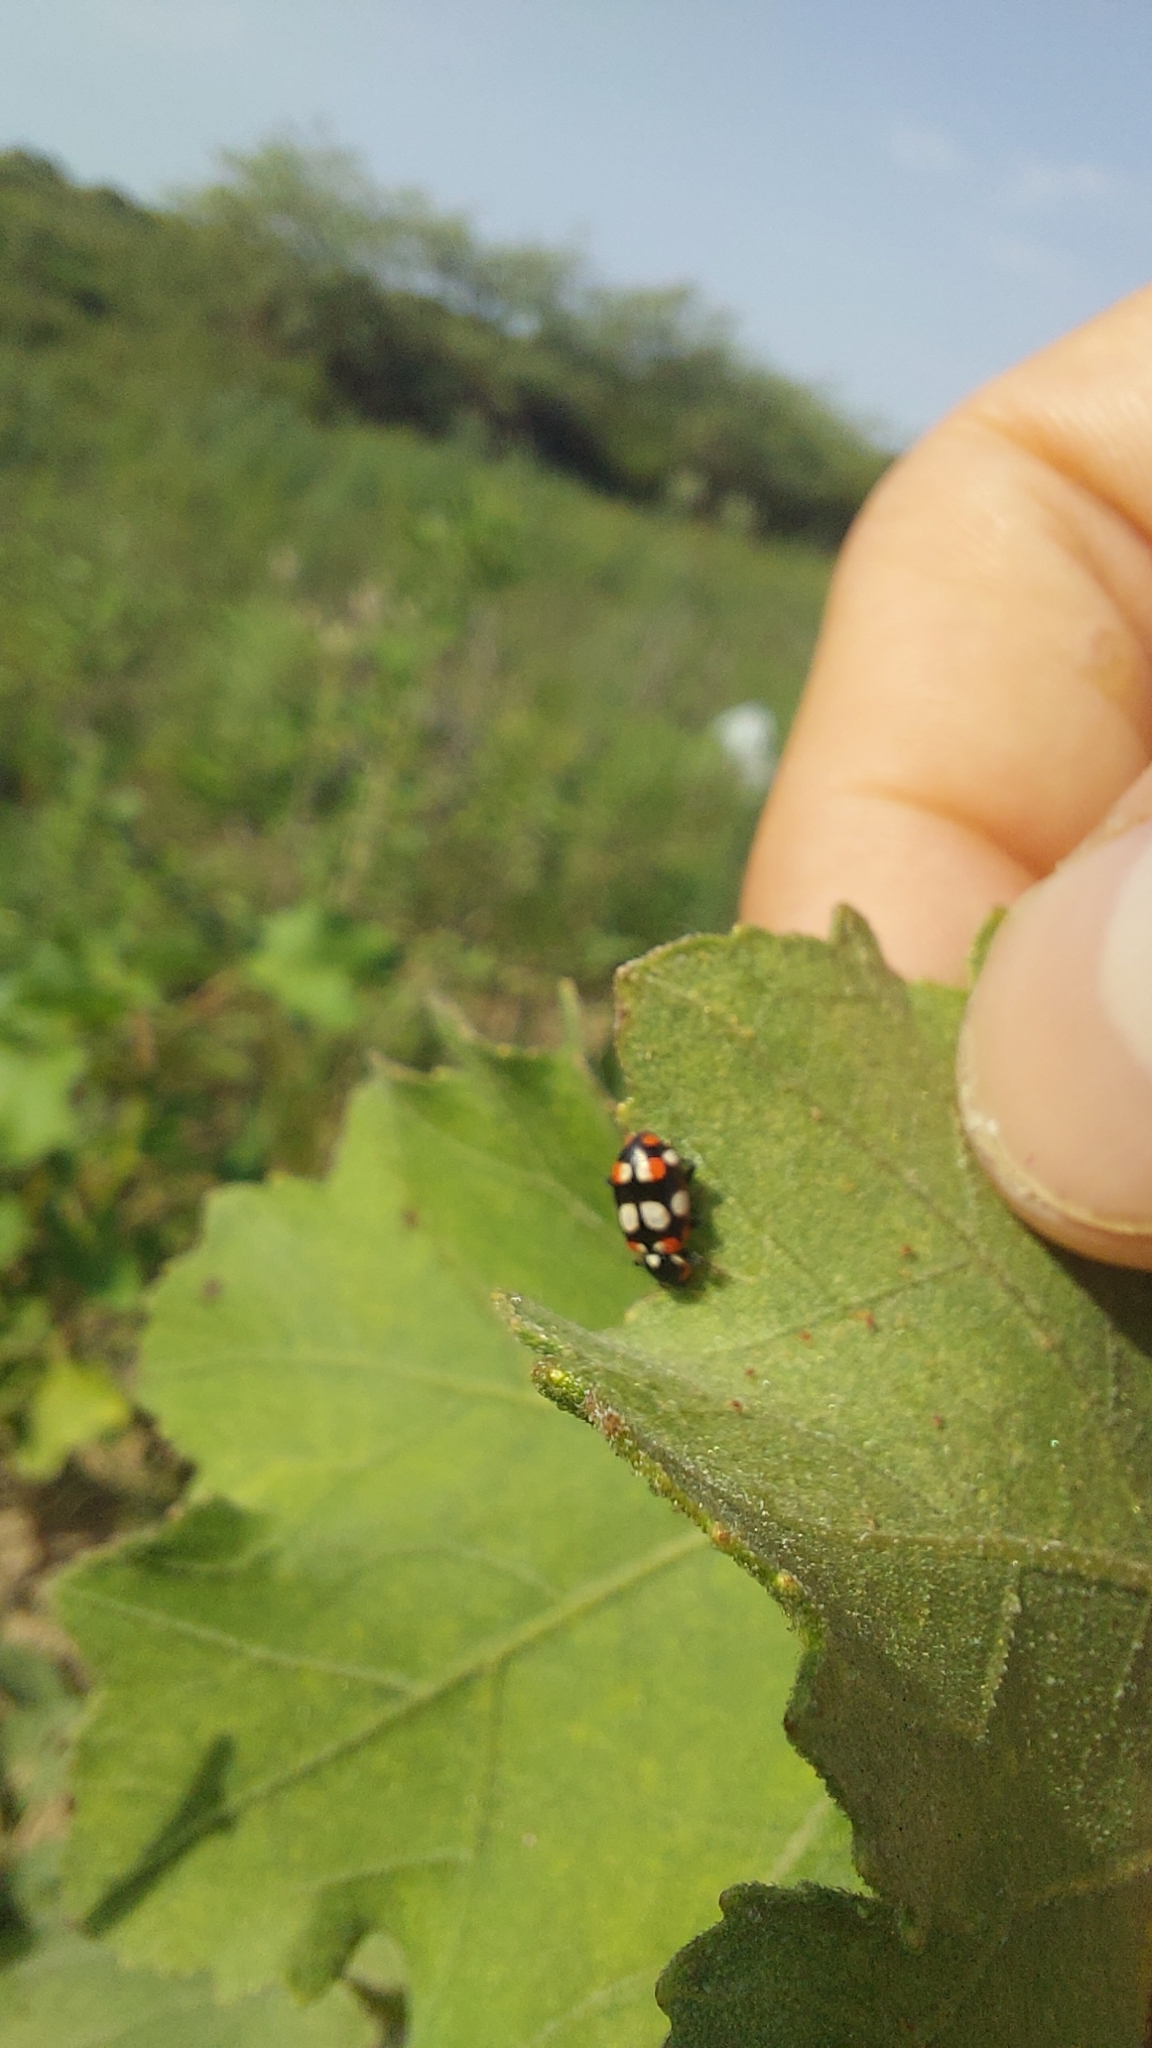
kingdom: Animalia
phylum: Arthropoda
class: Insecta
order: Coleoptera
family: Coccinellidae
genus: Eriopis
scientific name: Eriopis connexa
